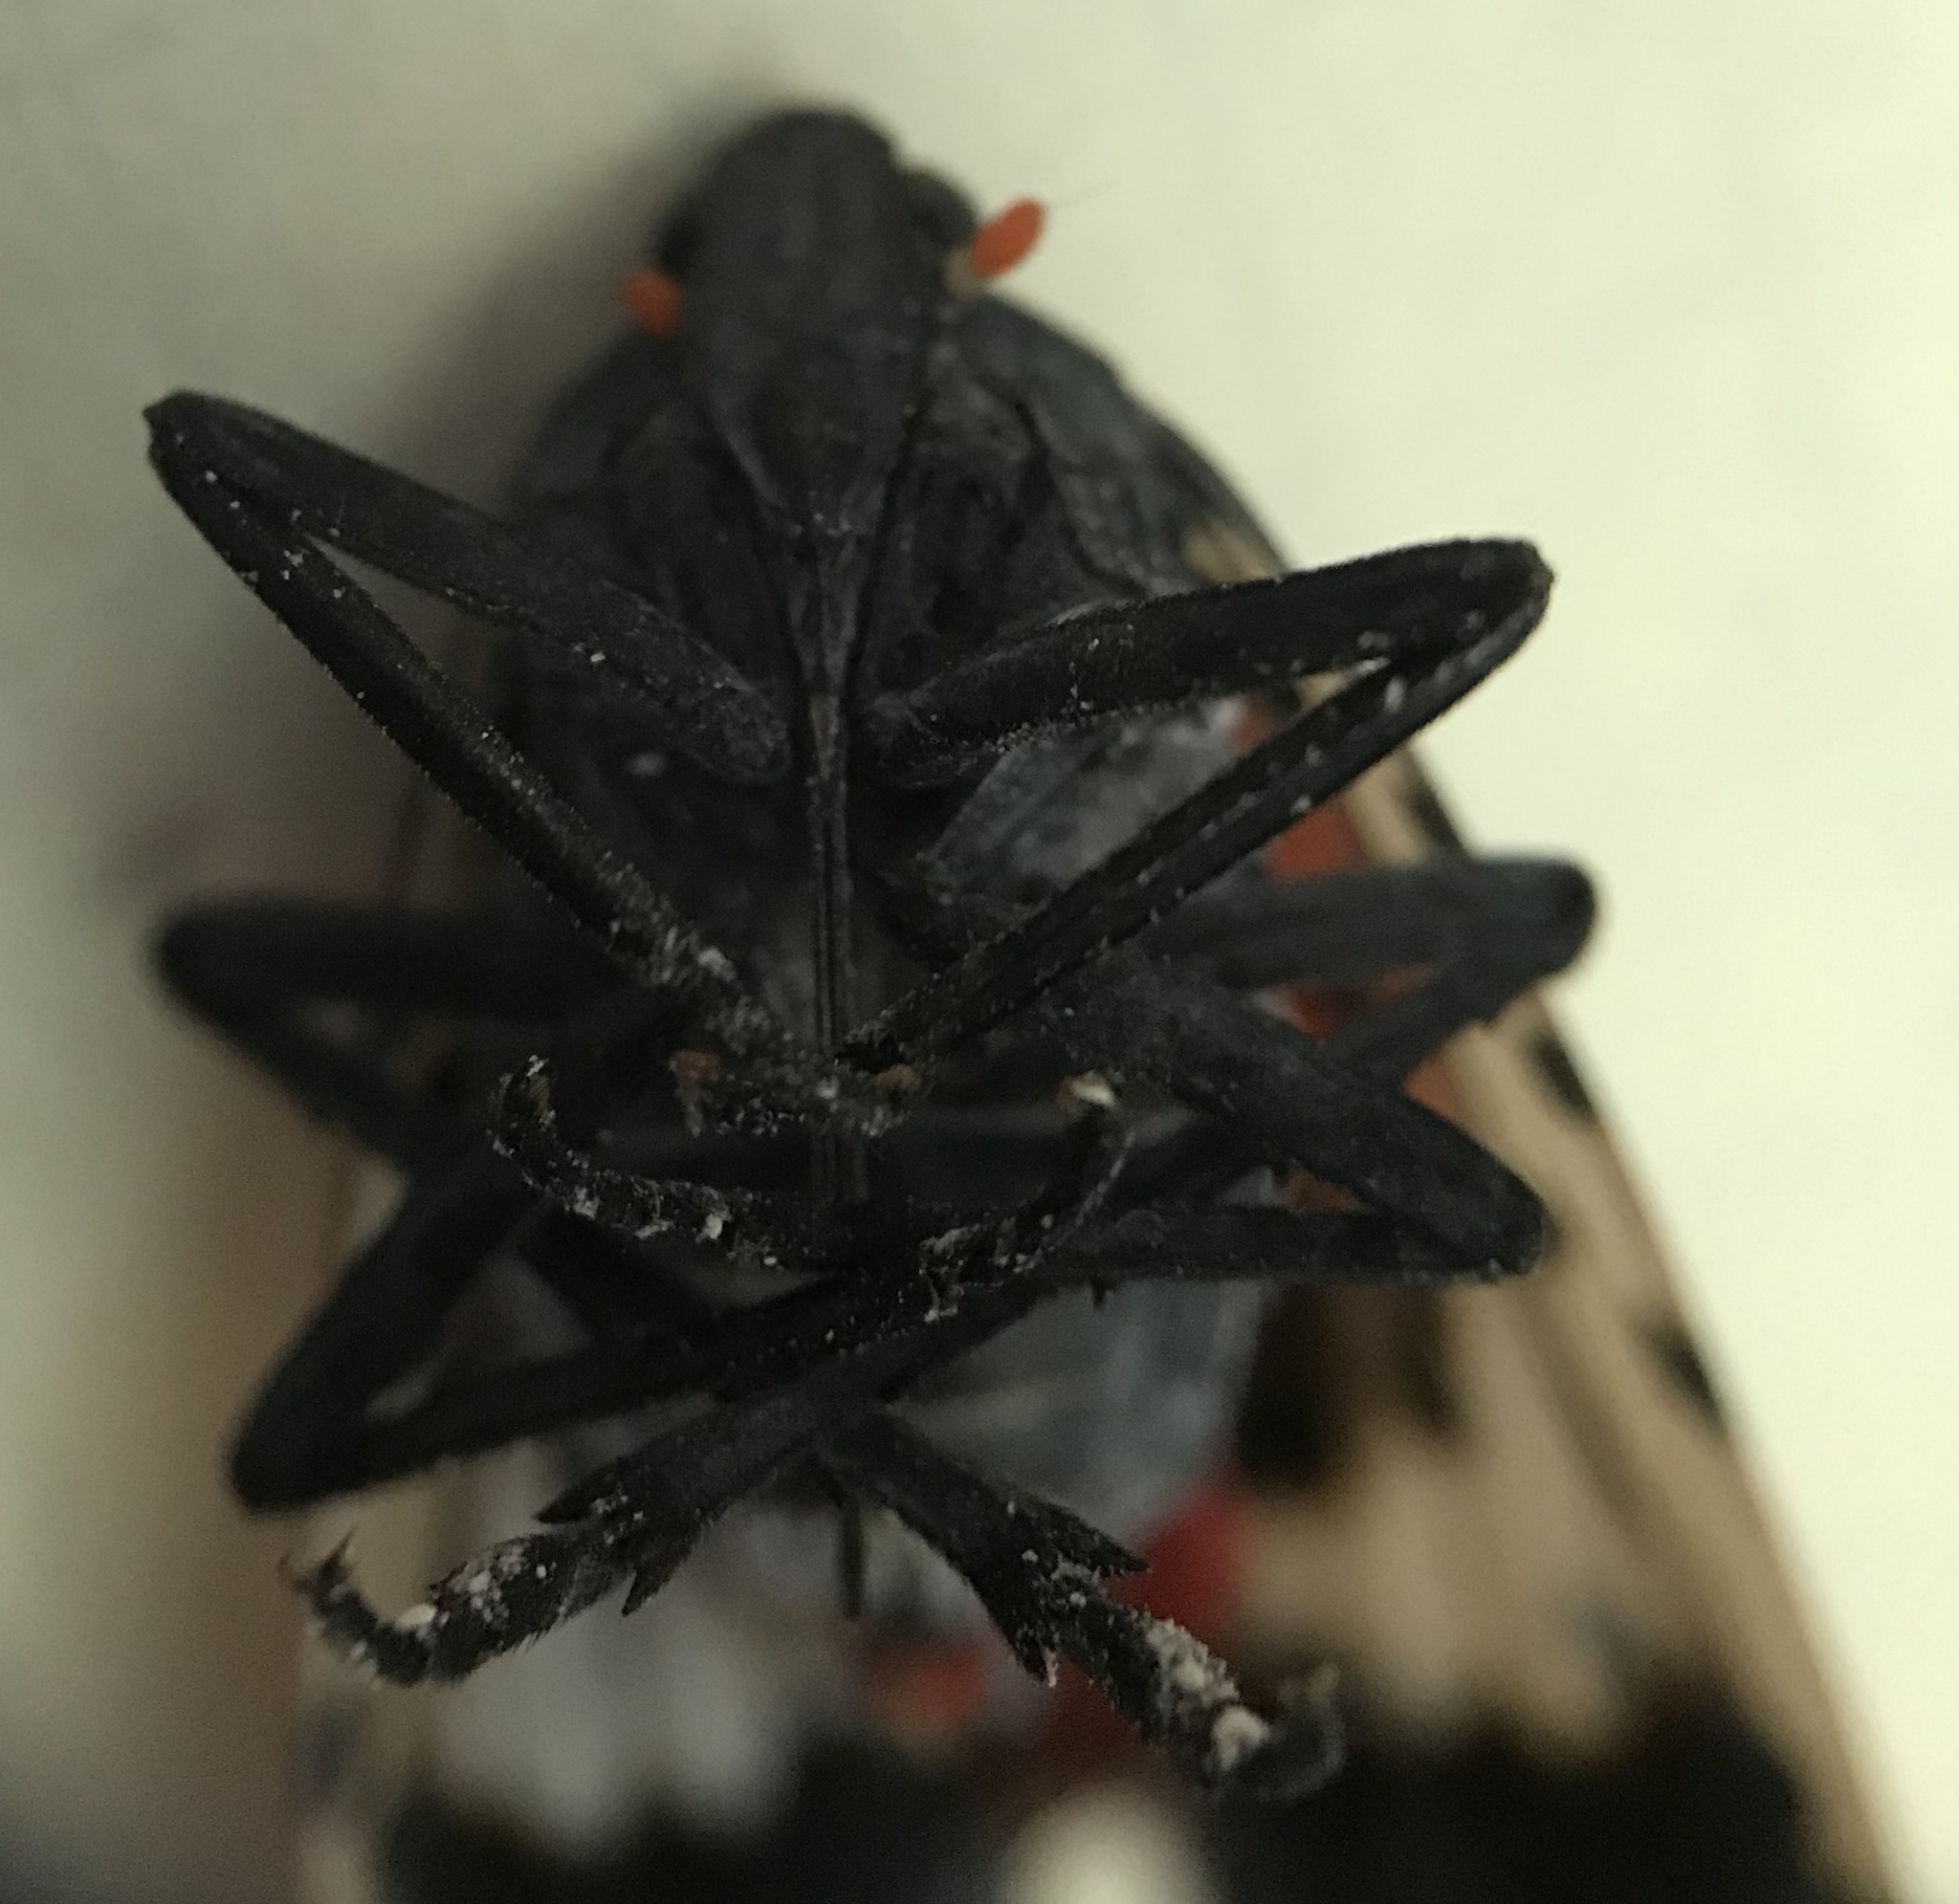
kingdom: Animalia
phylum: Arthropoda
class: Insecta
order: Hemiptera
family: Fulgoridae
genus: Lycorma
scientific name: Lycorma delicatula
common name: Spotted lanternfly
